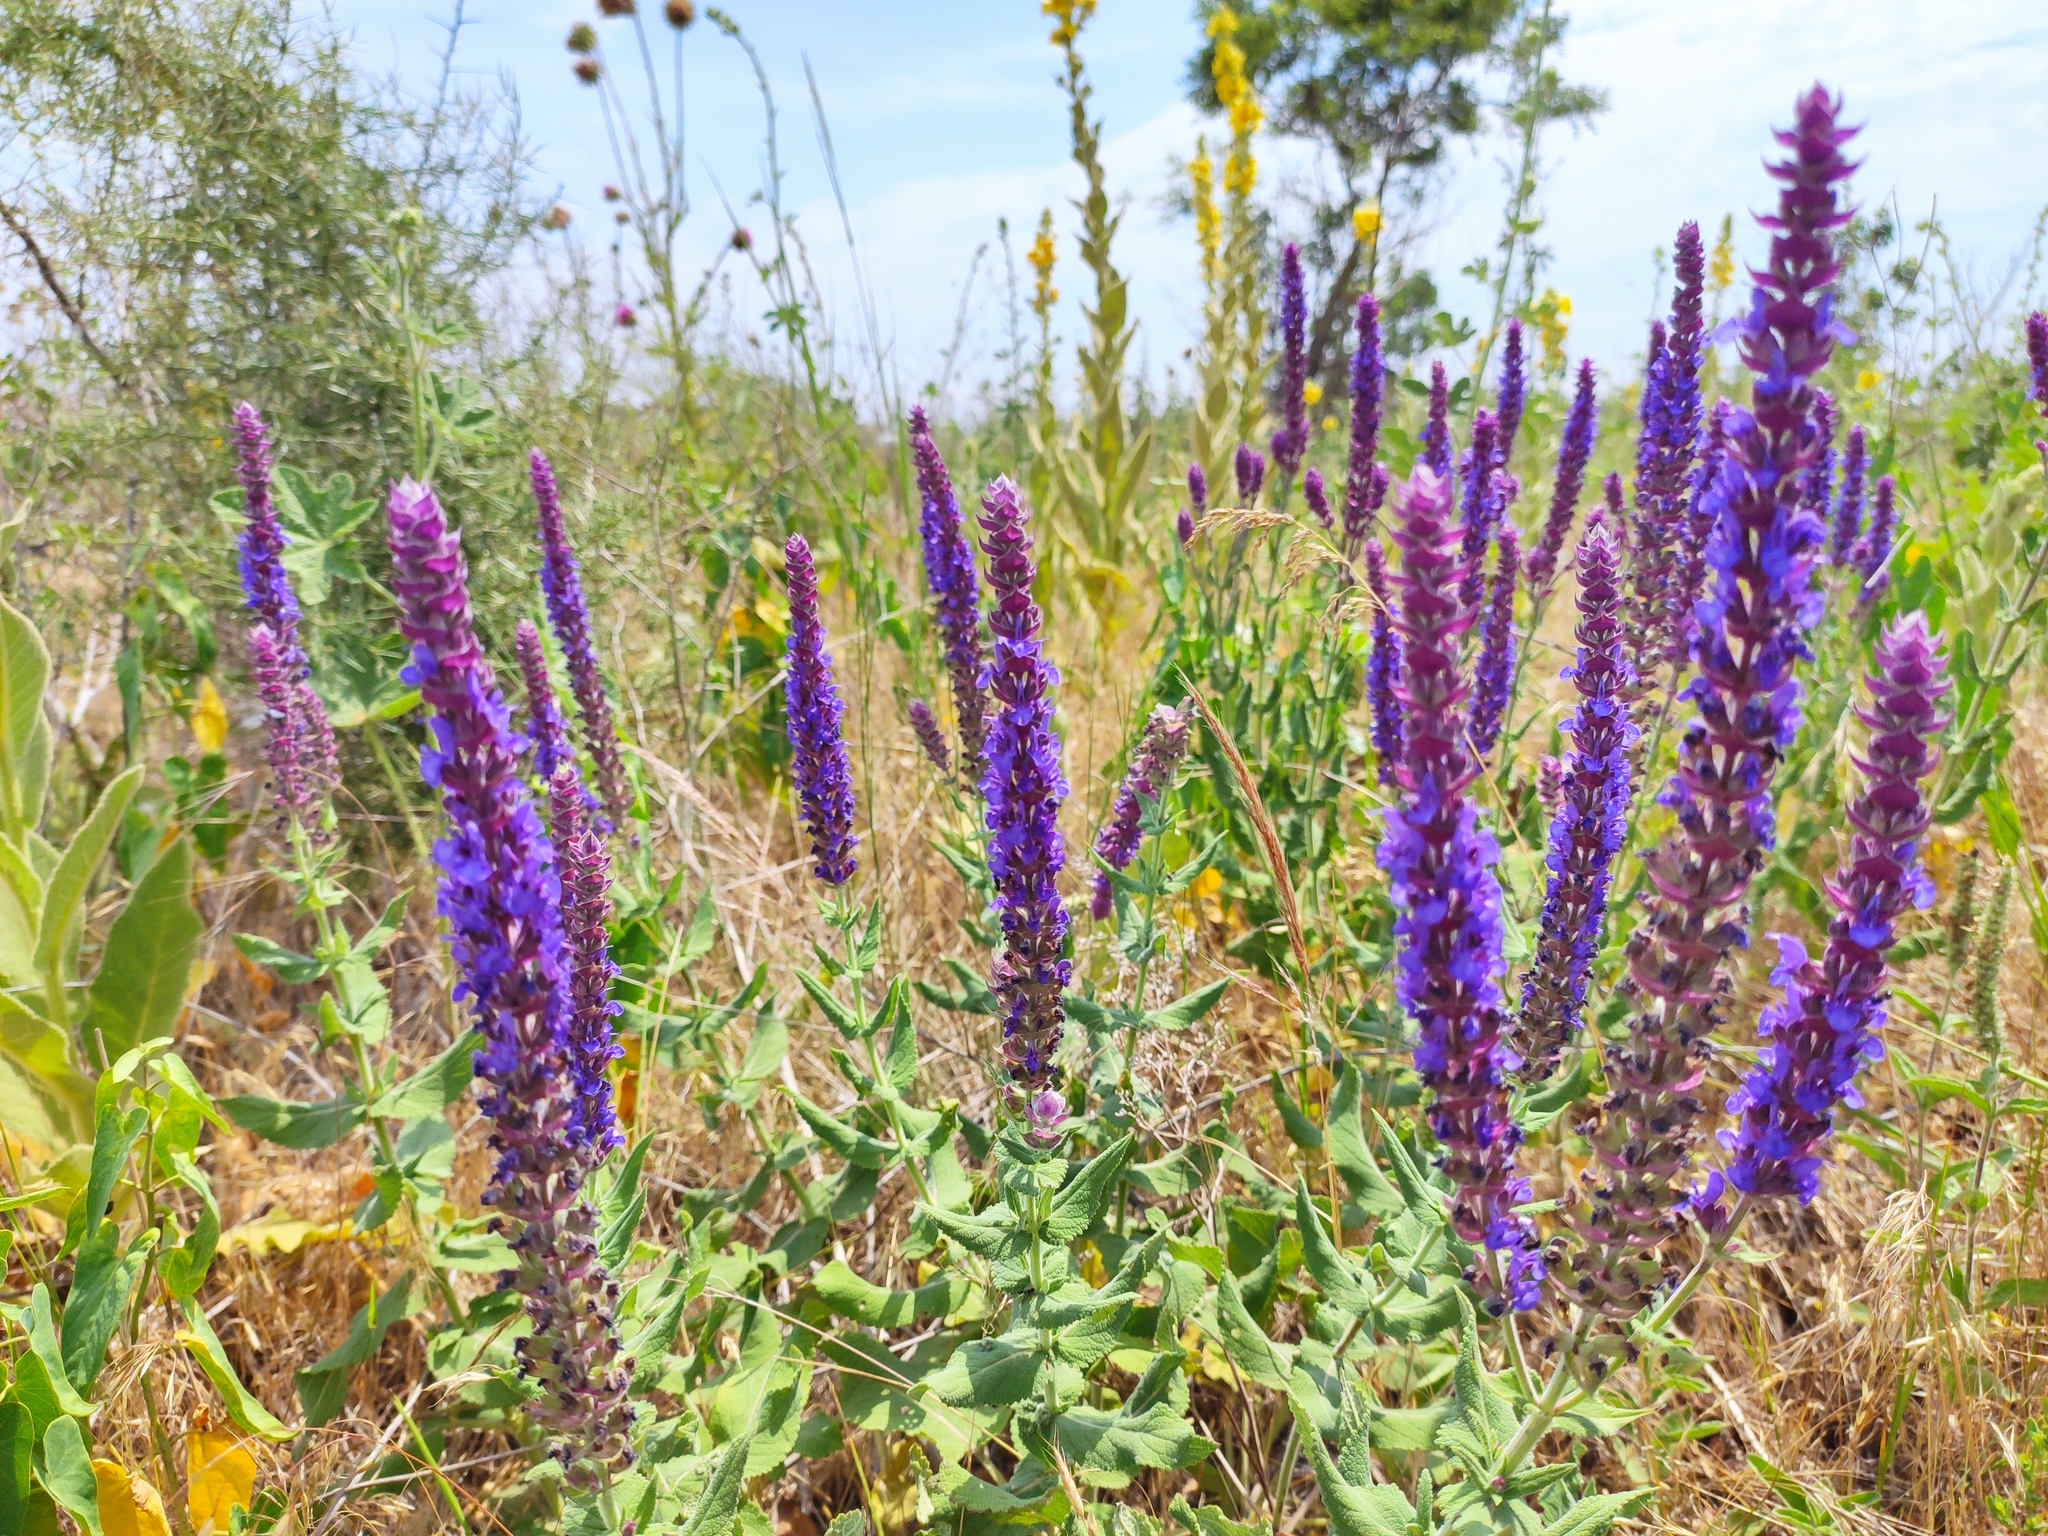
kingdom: Plantae
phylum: Tracheophyta
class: Magnoliopsida
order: Lamiales
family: Lamiaceae
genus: Salvia
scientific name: Salvia nemorosa
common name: Balkan clary
